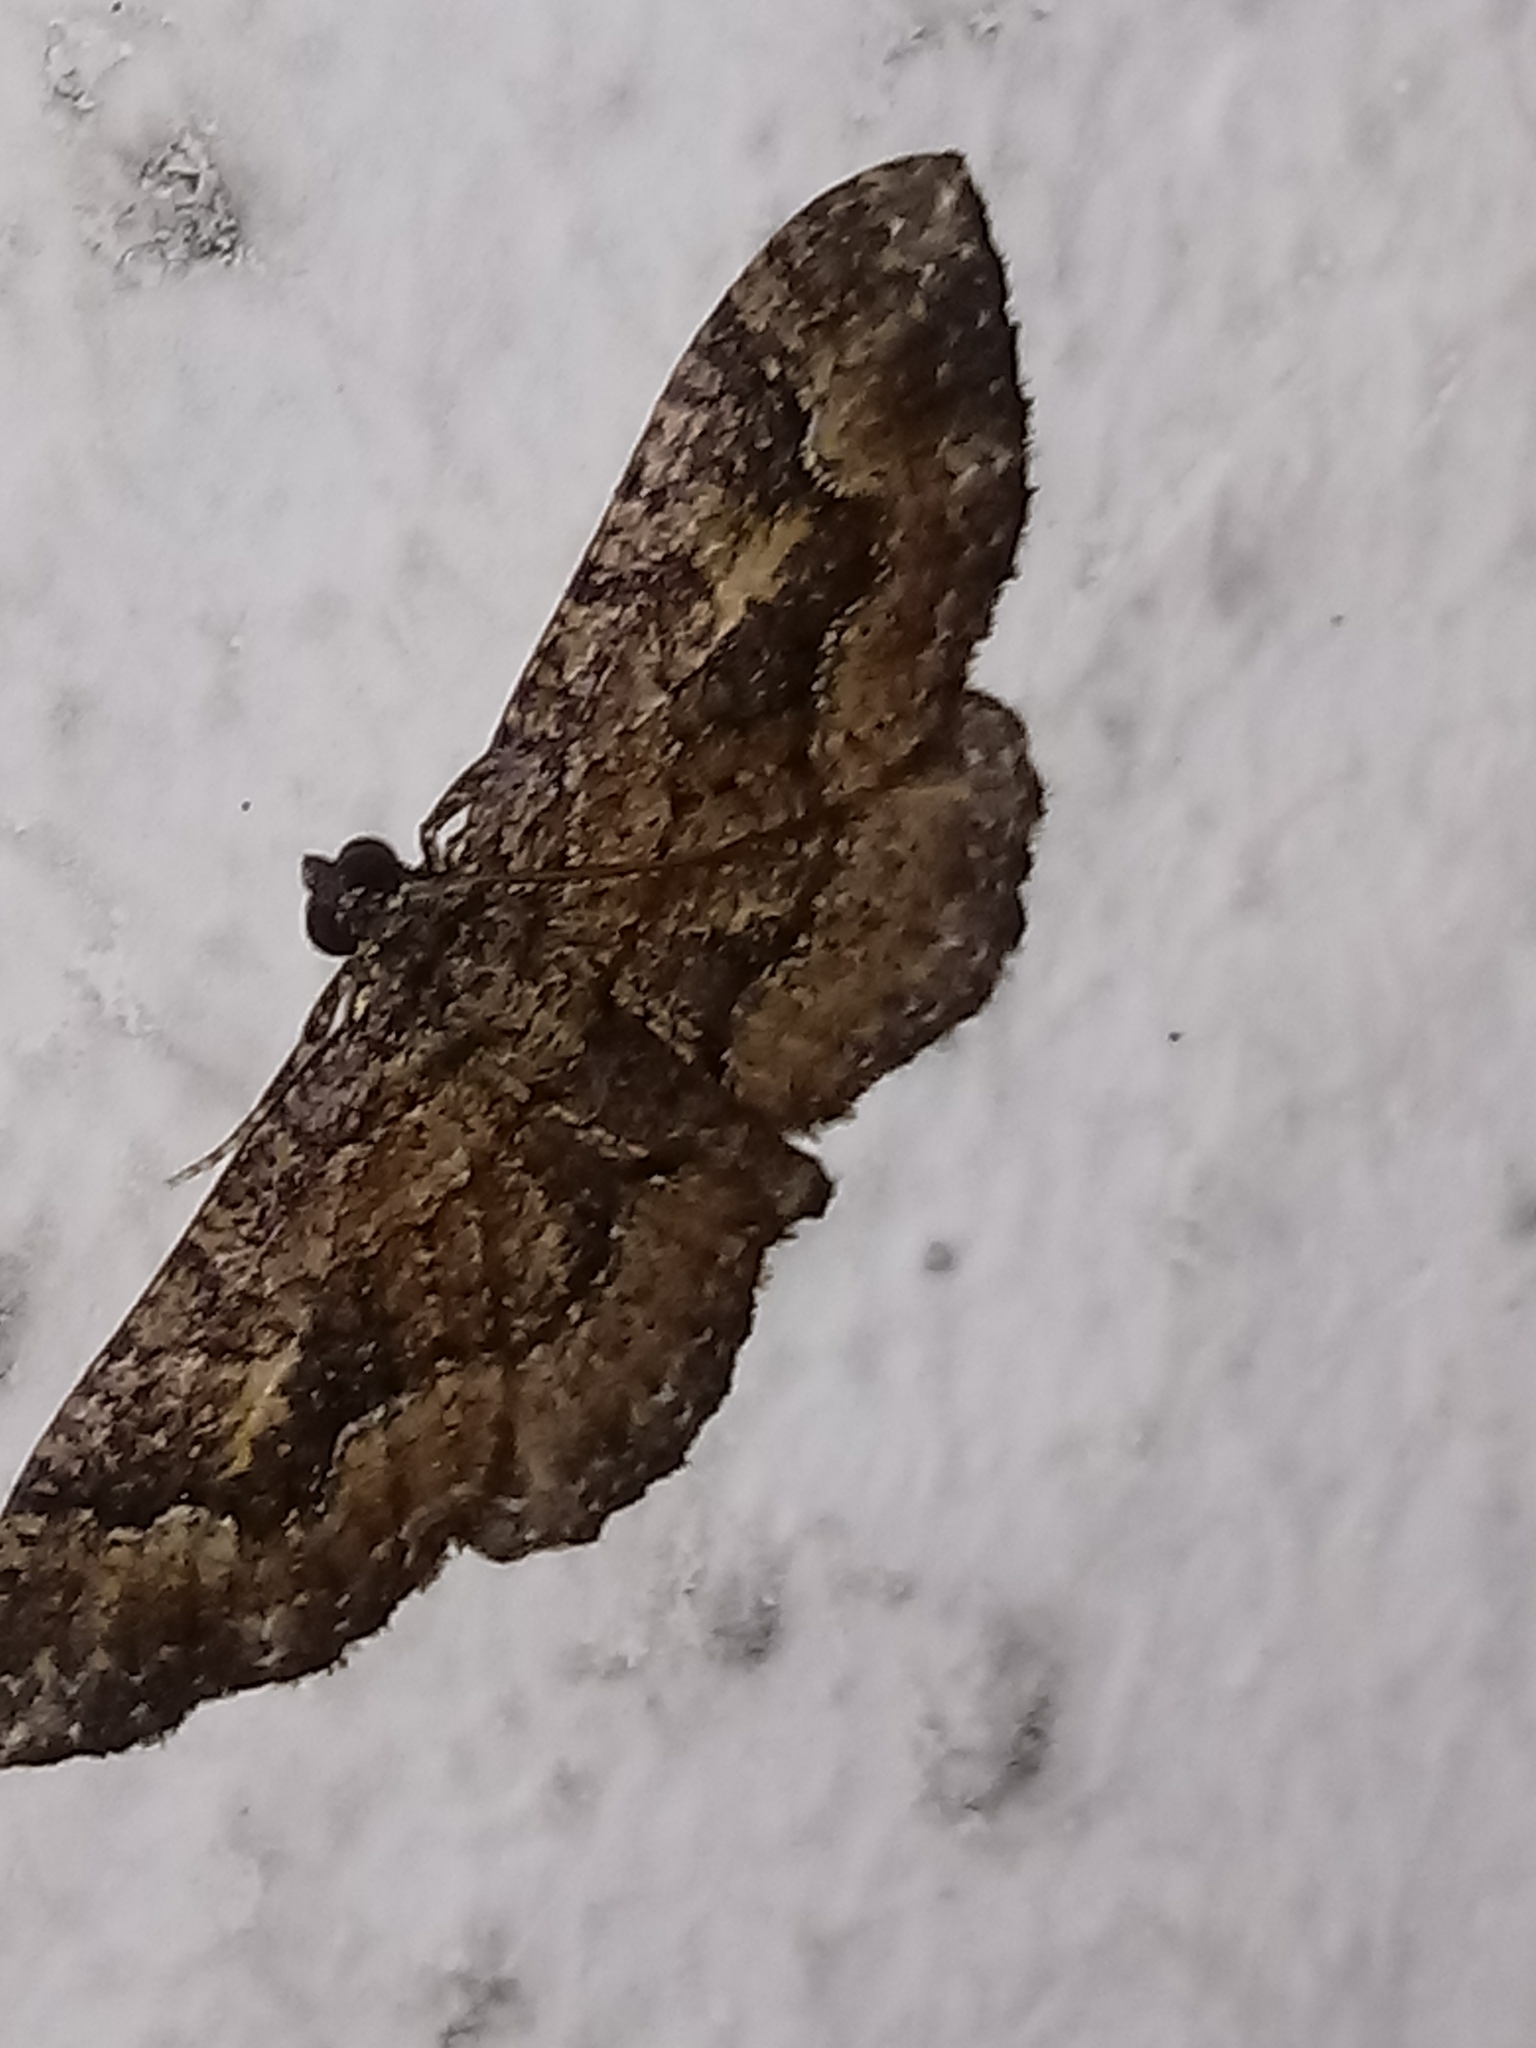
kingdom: Animalia
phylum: Arthropoda
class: Insecta
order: Lepidoptera
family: Geometridae
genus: Disclisioprocta
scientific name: Disclisioprocta stellata
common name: Somber carpet
